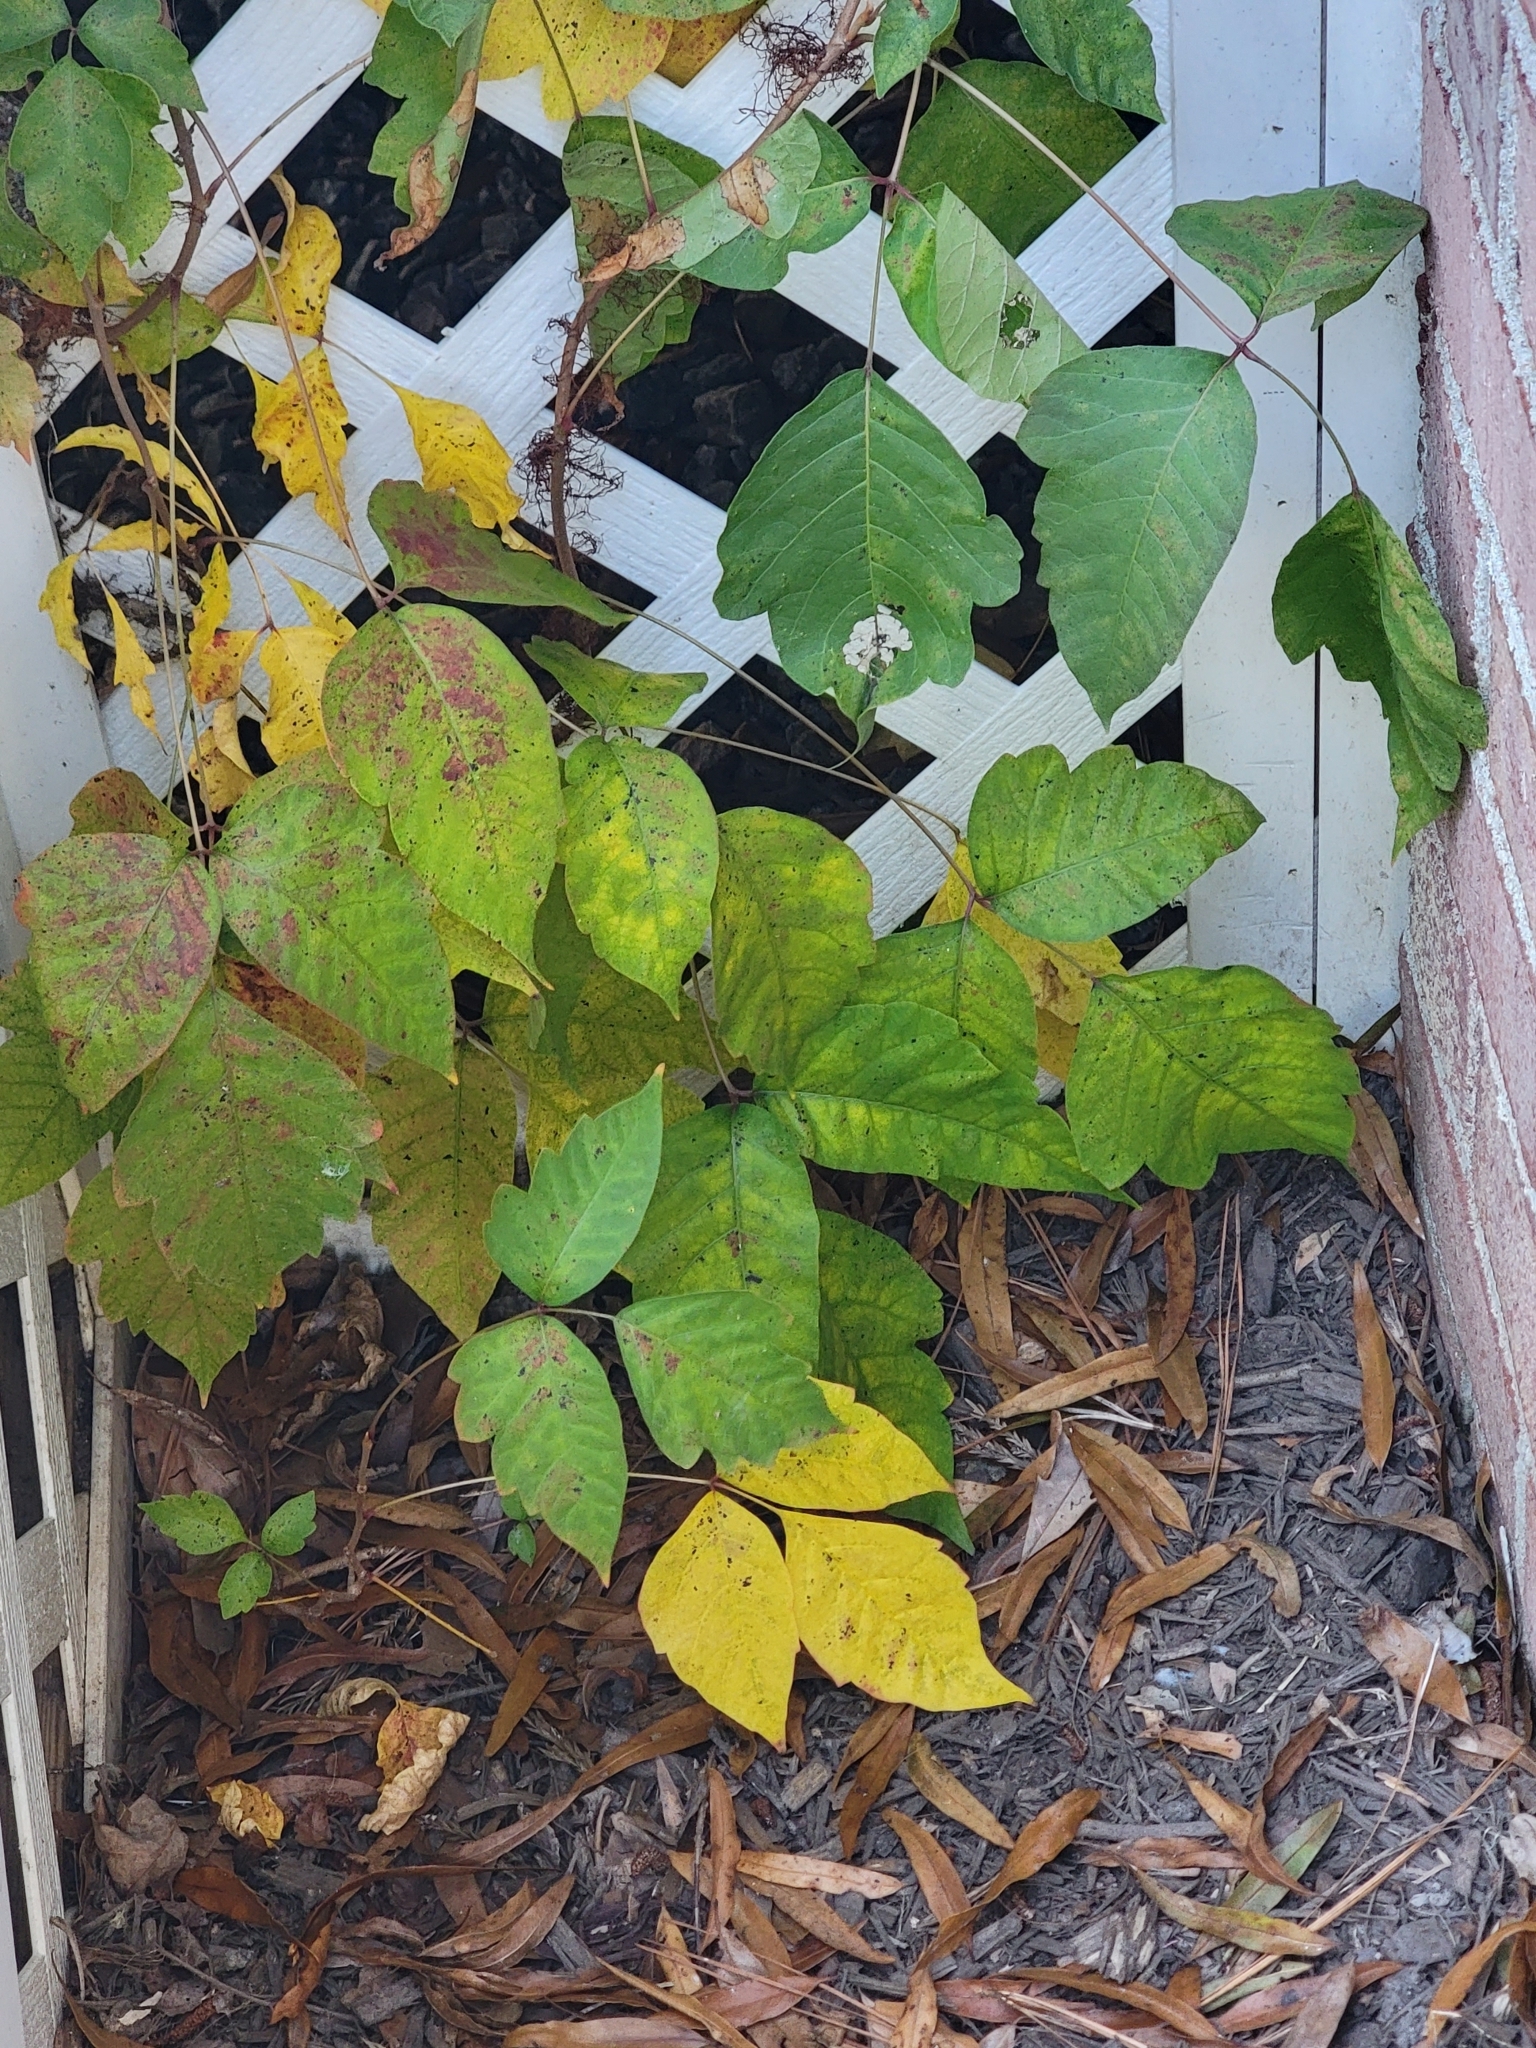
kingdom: Plantae
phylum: Tracheophyta
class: Magnoliopsida
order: Sapindales
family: Anacardiaceae
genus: Toxicodendron
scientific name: Toxicodendron radicans
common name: Poison ivy
